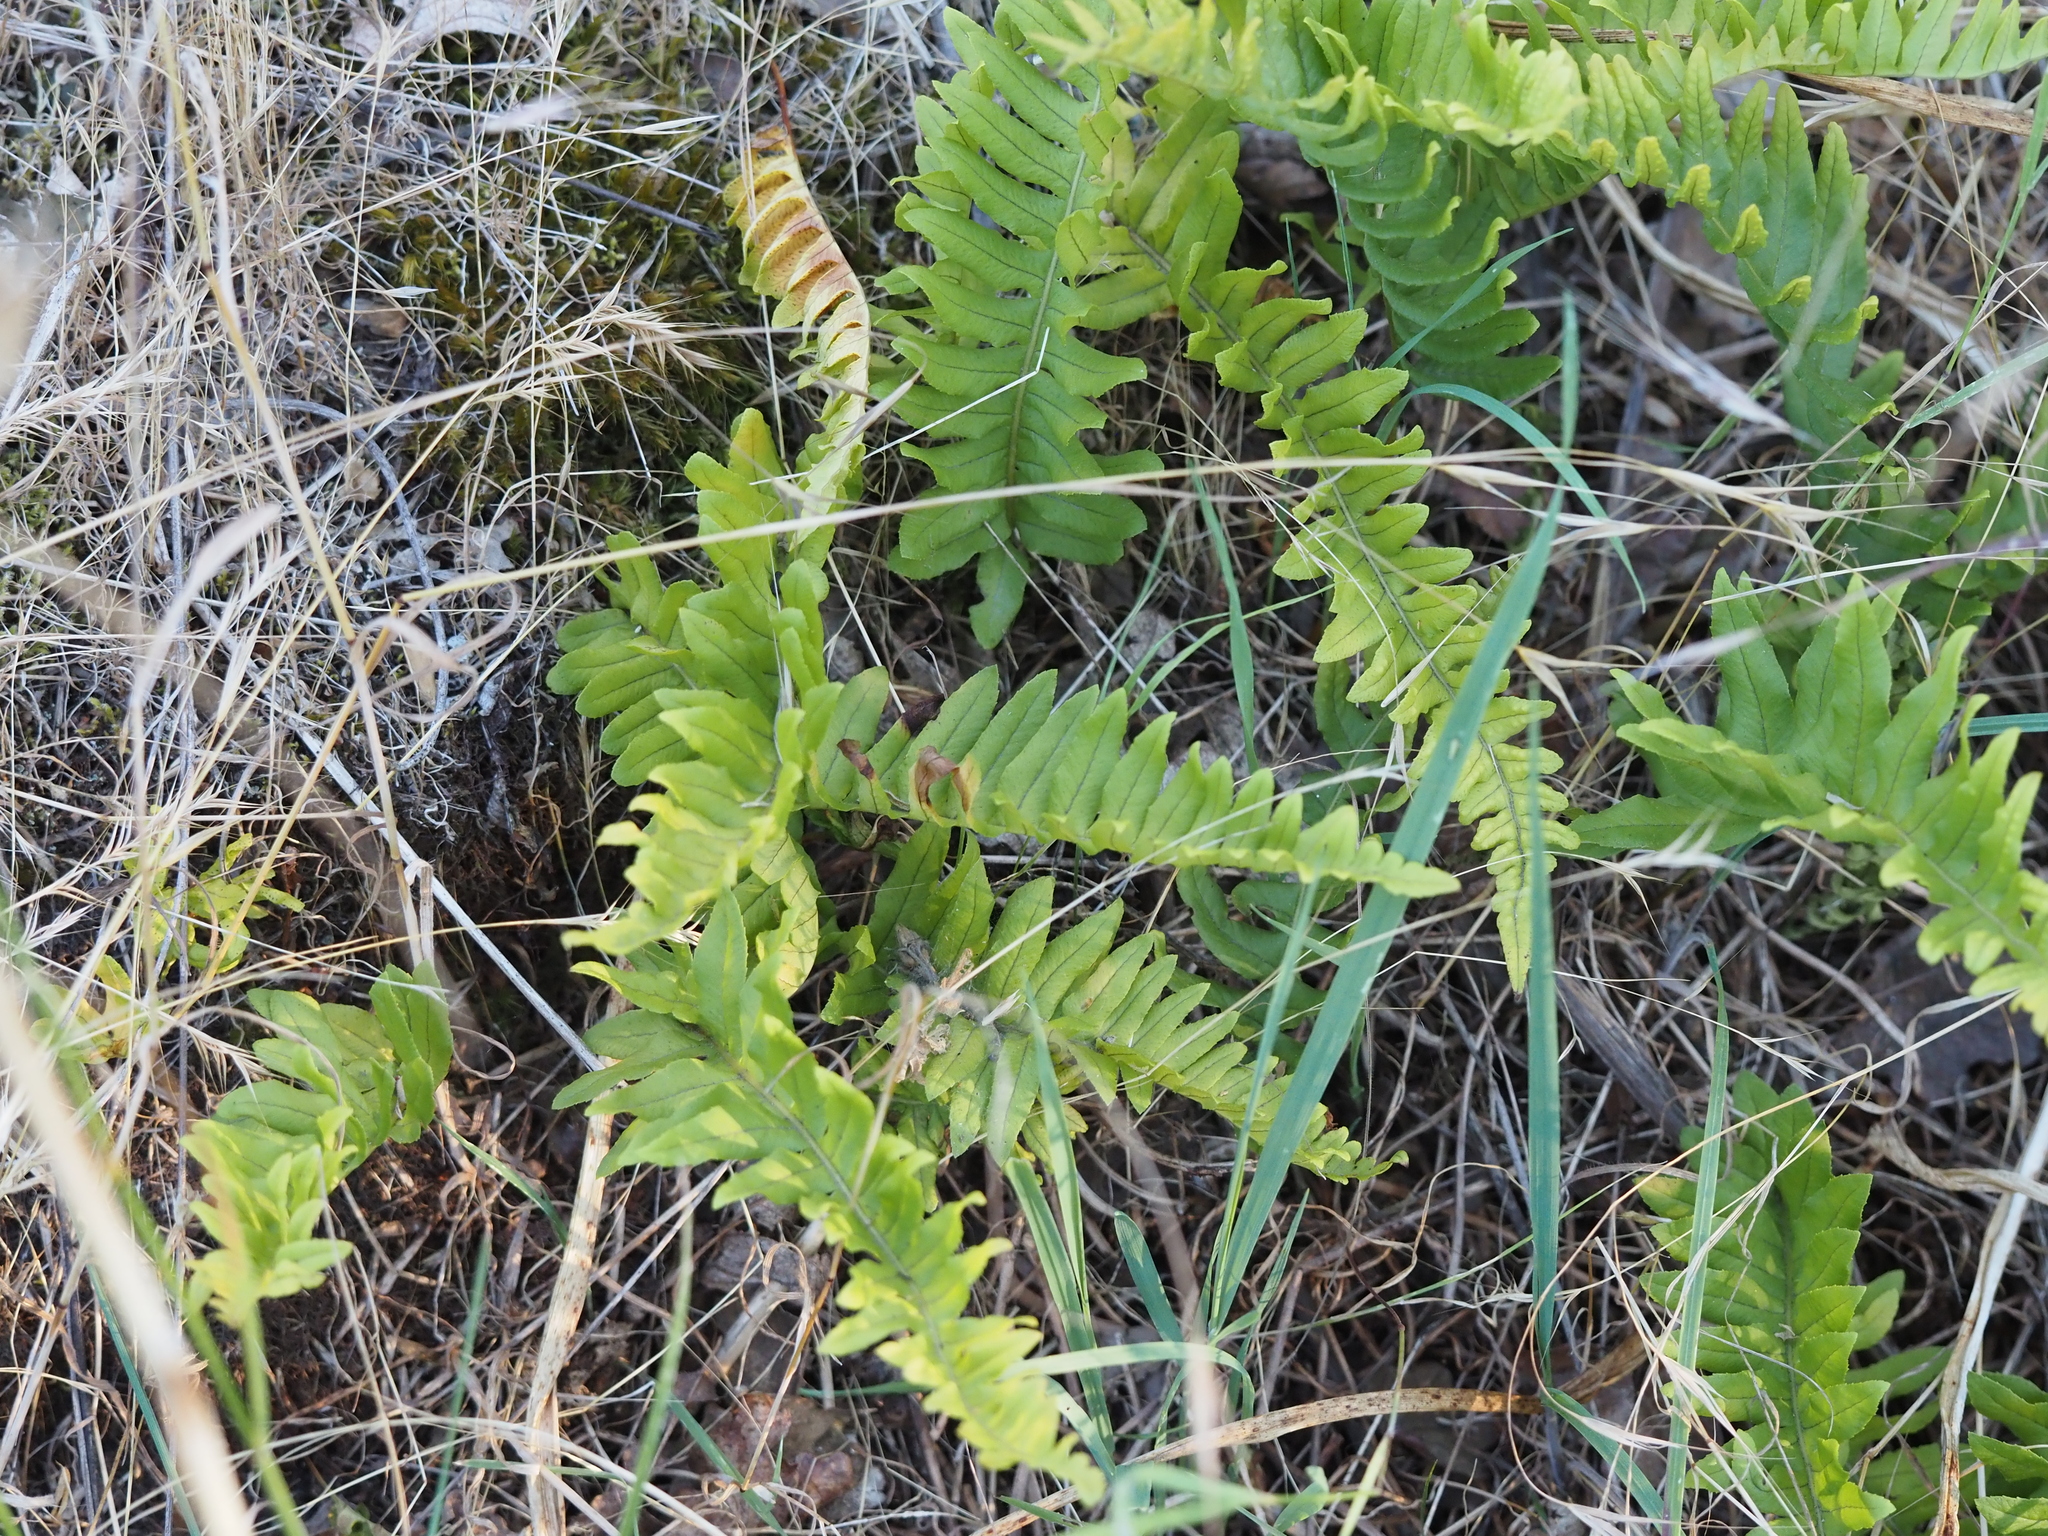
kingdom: Plantae
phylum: Tracheophyta
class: Polypodiopsida
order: Polypodiales
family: Polypodiaceae
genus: Polypodium
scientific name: Polypodium glycyrrhiza
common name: Licorice fern
